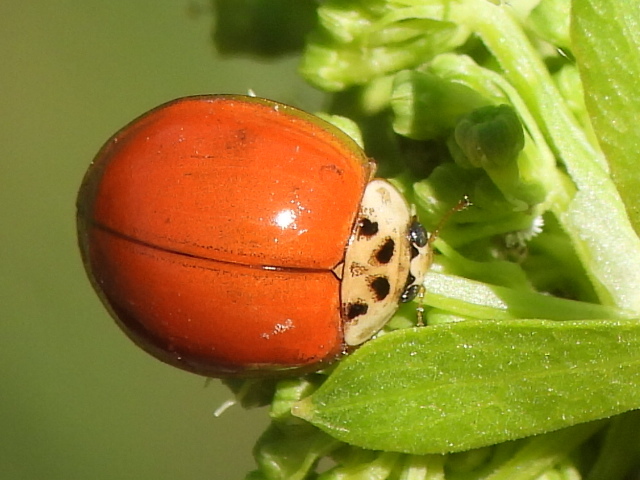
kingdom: Animalia
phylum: Arthropoda
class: Insecta
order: Coleoptera
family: Coccinellidae
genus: Harmonia
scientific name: Harmonia axyridis
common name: Harlequin ladybird
